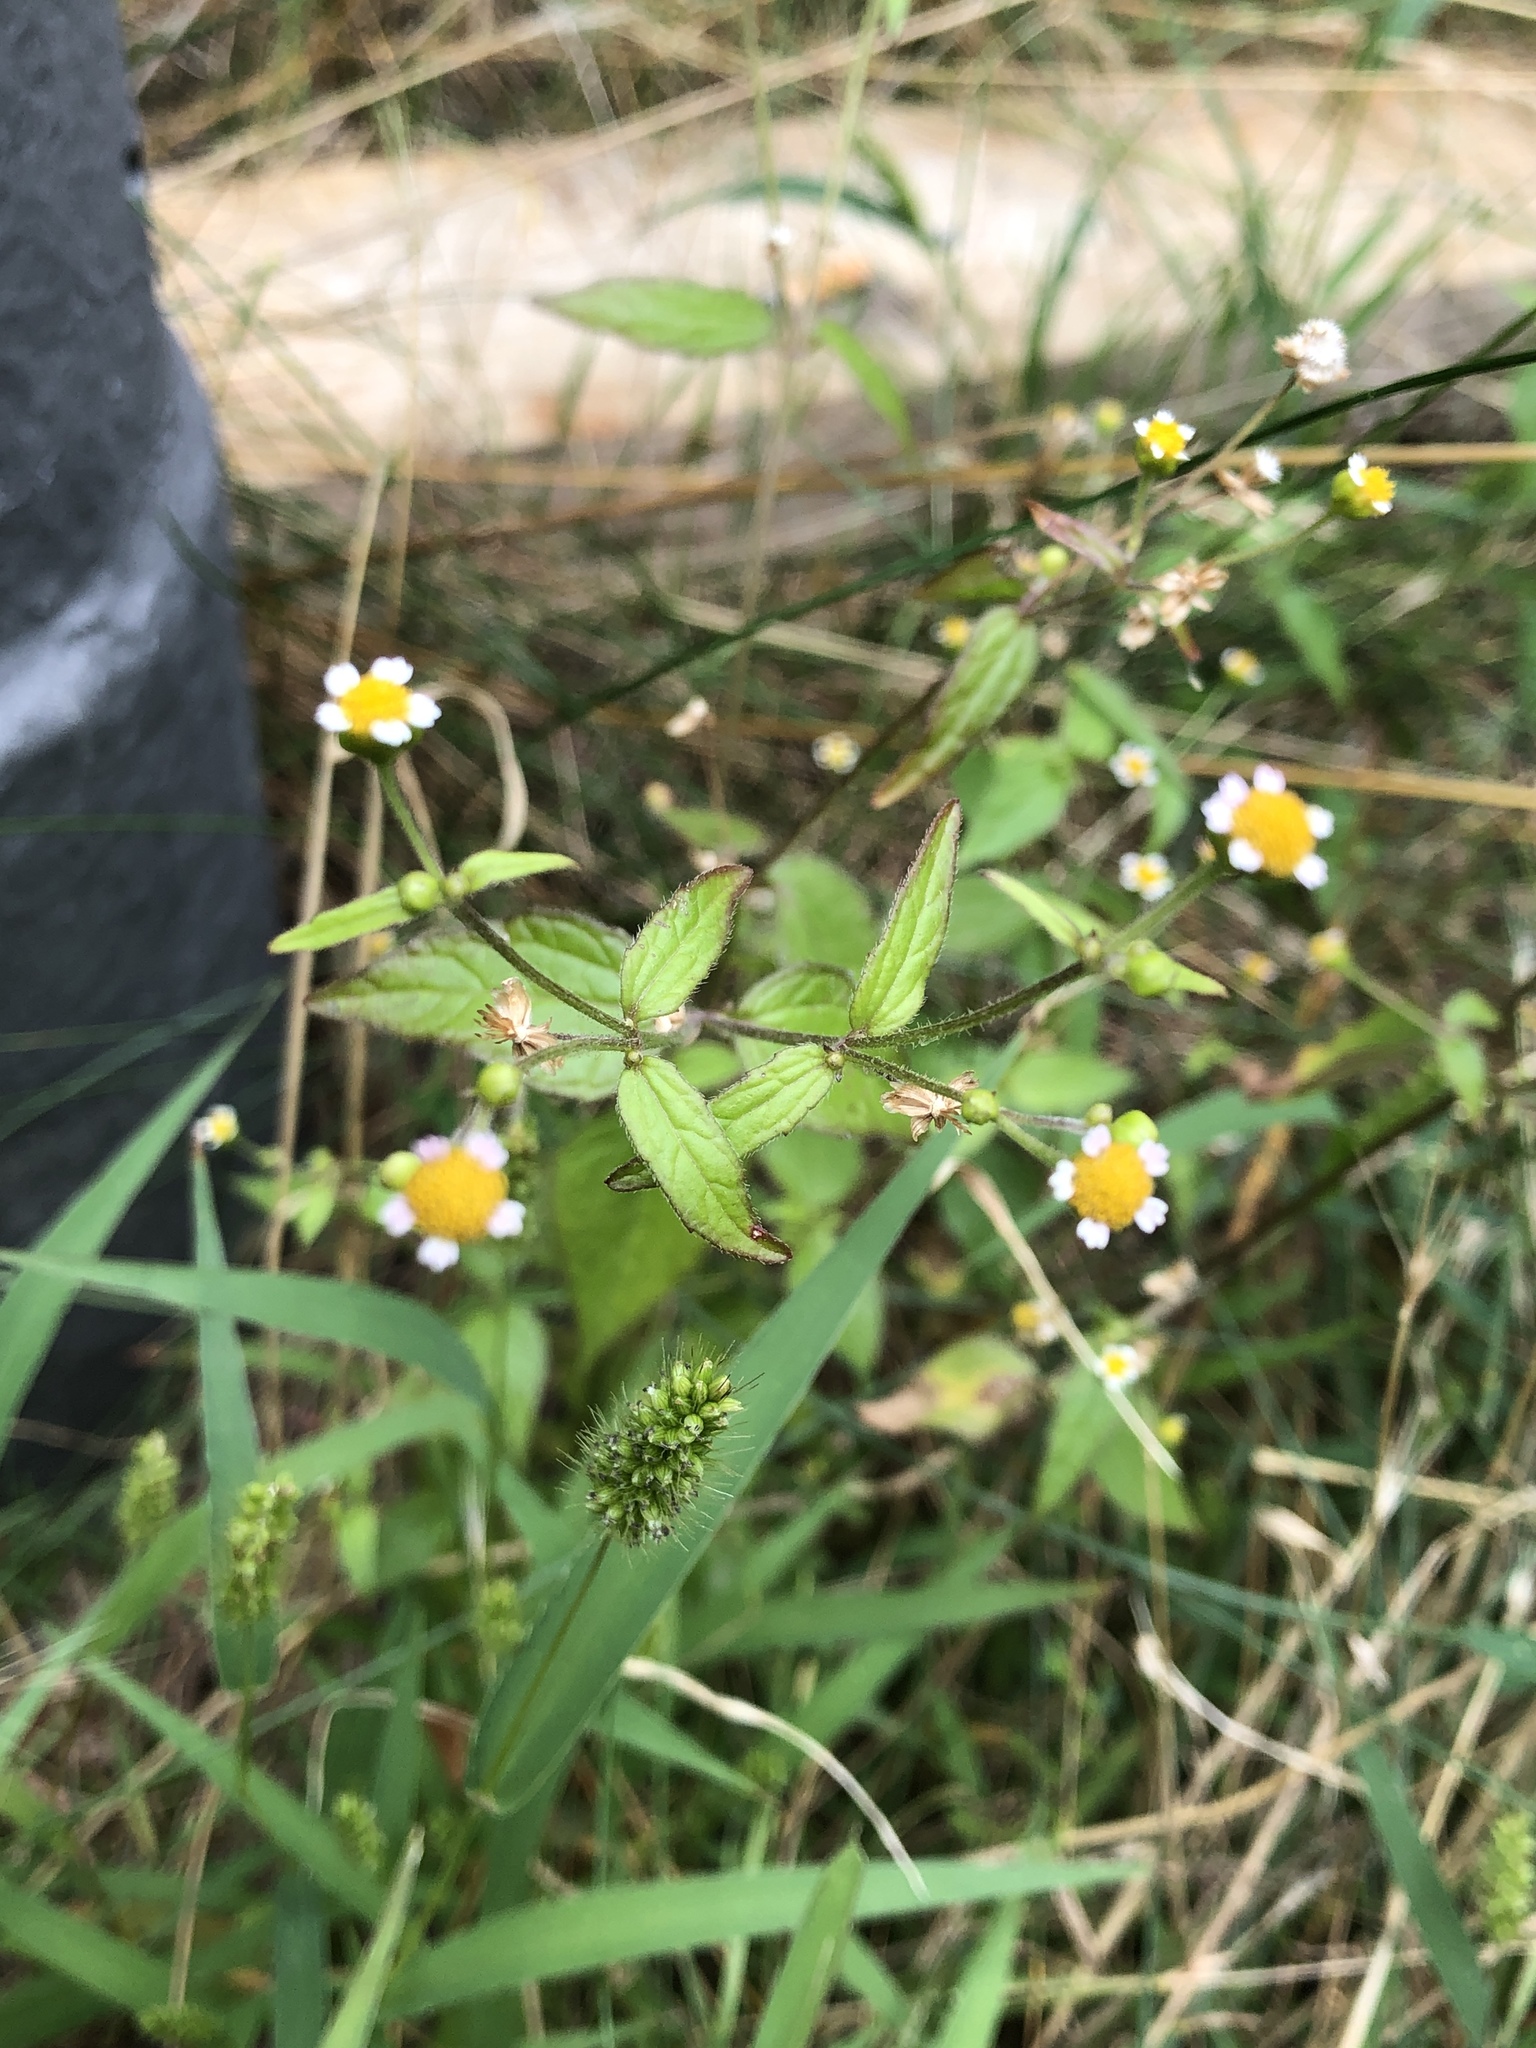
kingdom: Plantae
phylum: Tracheophyta
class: Magnoliopsida
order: Asterales
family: Asteraceae
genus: Galinsoga
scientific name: Galinsoga parviflora
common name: Gallant soldier
